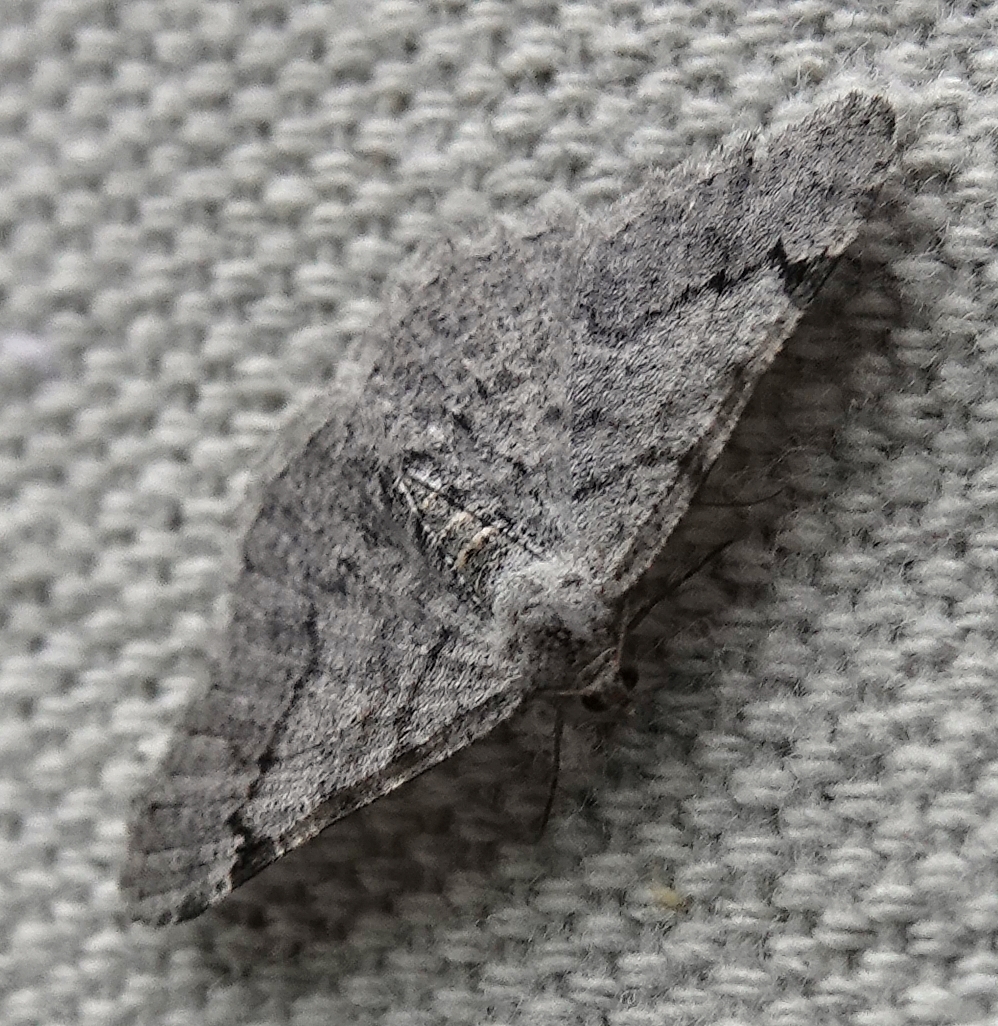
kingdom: Animalia
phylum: Arthropoda
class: Insecta
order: Lepidoptera
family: Geometridae
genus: Digrammia
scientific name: Digrammia denticulata
